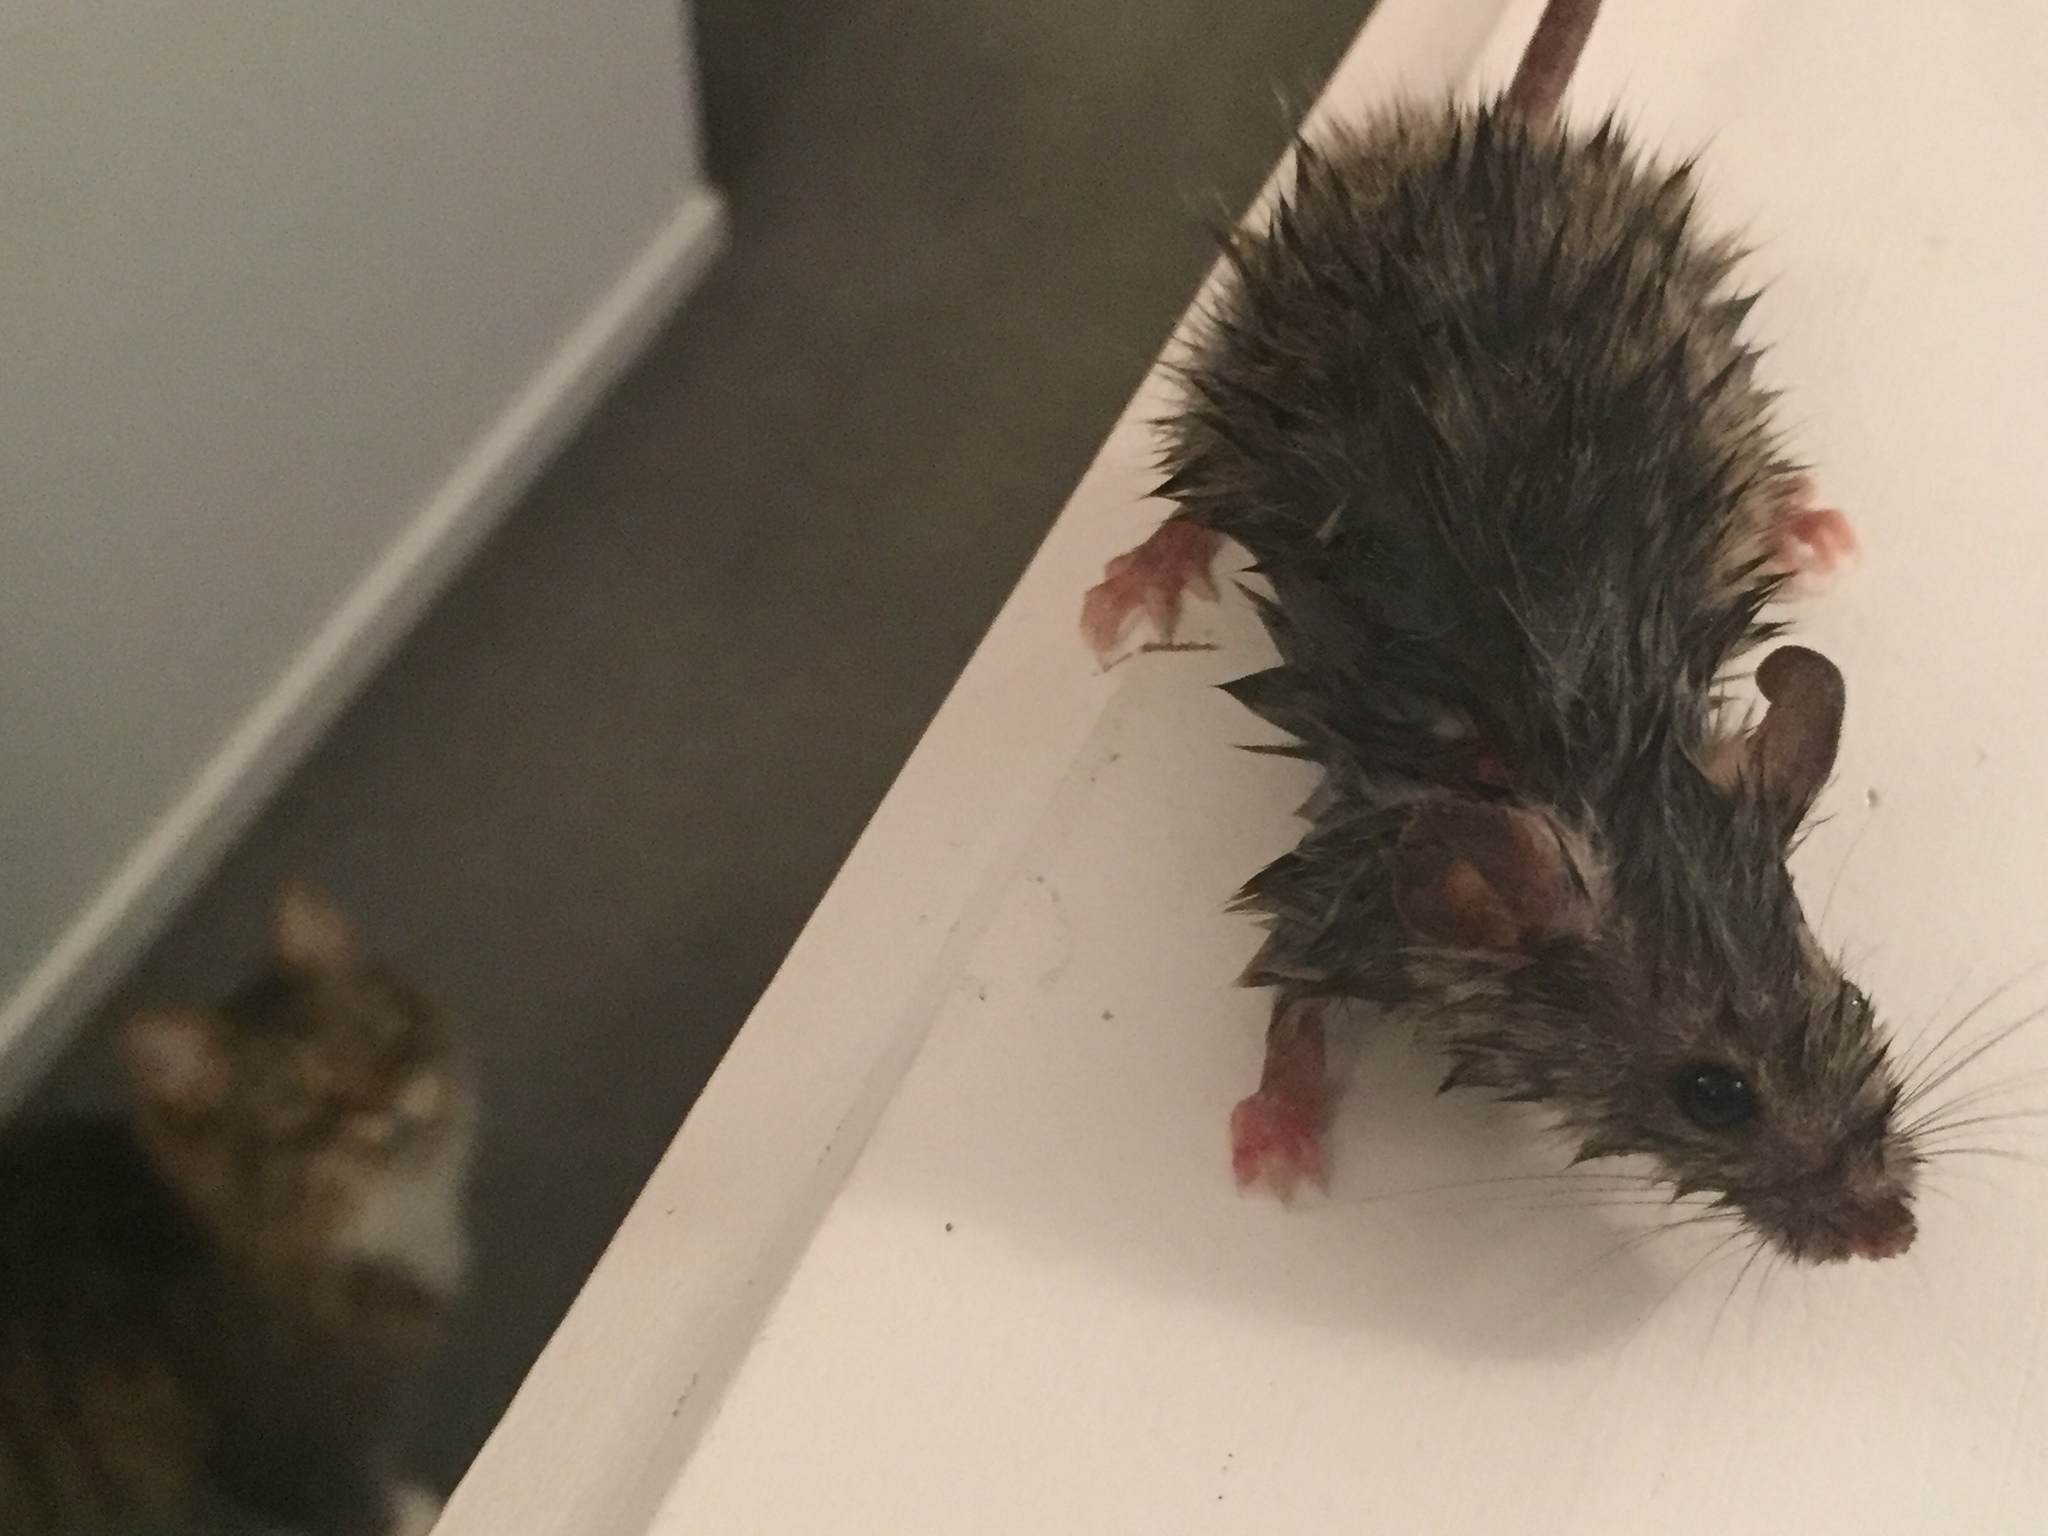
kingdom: Animalia
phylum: Chordata
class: Mammalia
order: Rodentia
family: Muridae
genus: Mus
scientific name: Mus musculus
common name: House mouse
